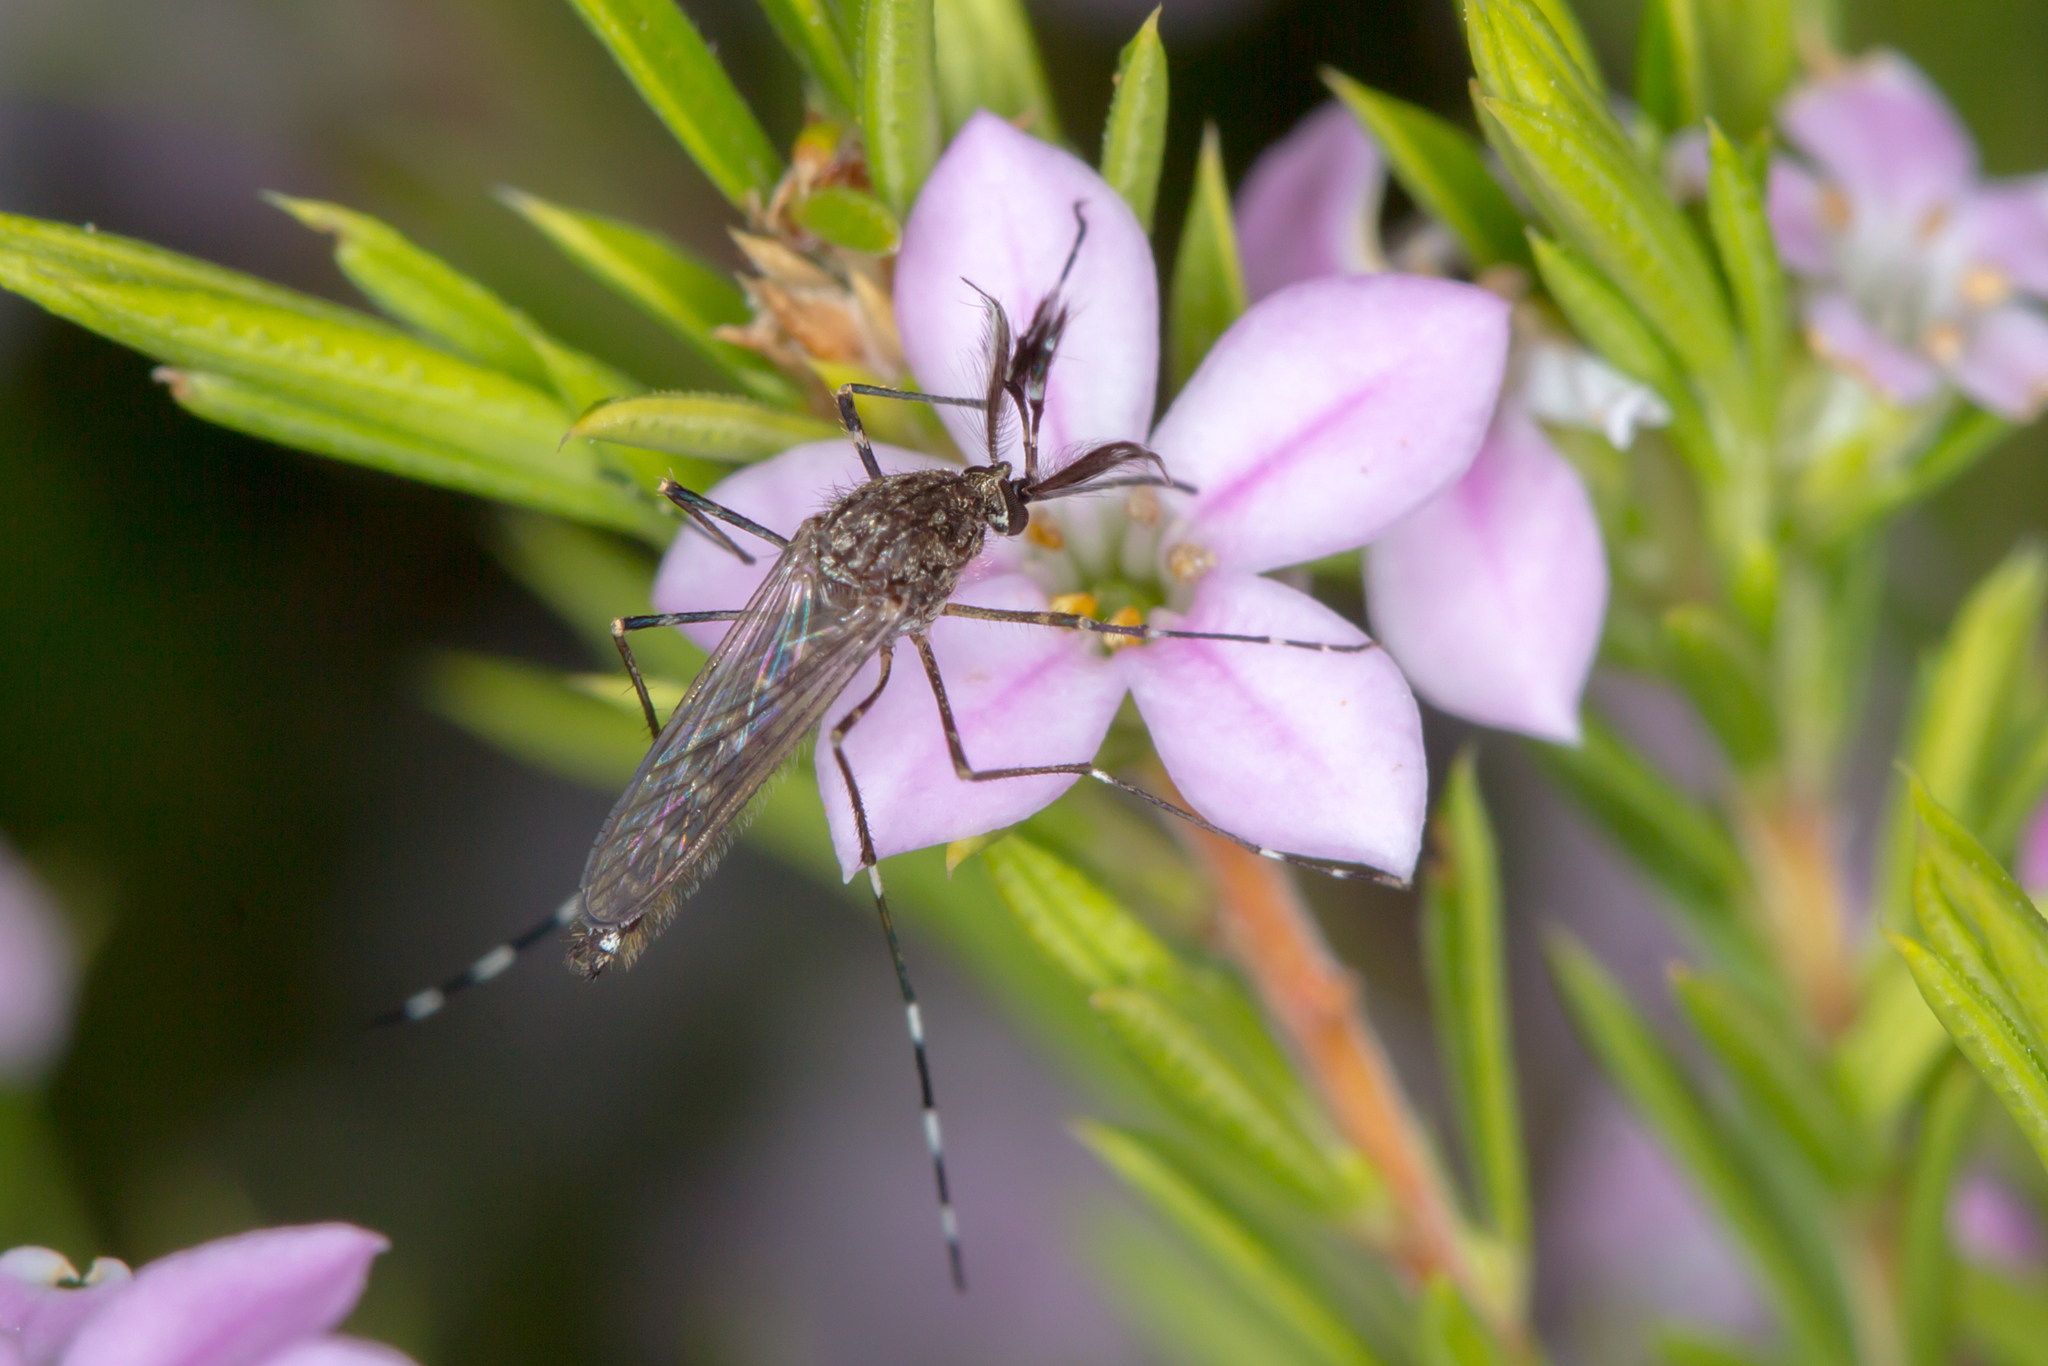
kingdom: Animalia
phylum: Arthropoda
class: Insecta
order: Diptera
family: Culicidae
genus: Aedes
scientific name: Aedes alboannulatus
